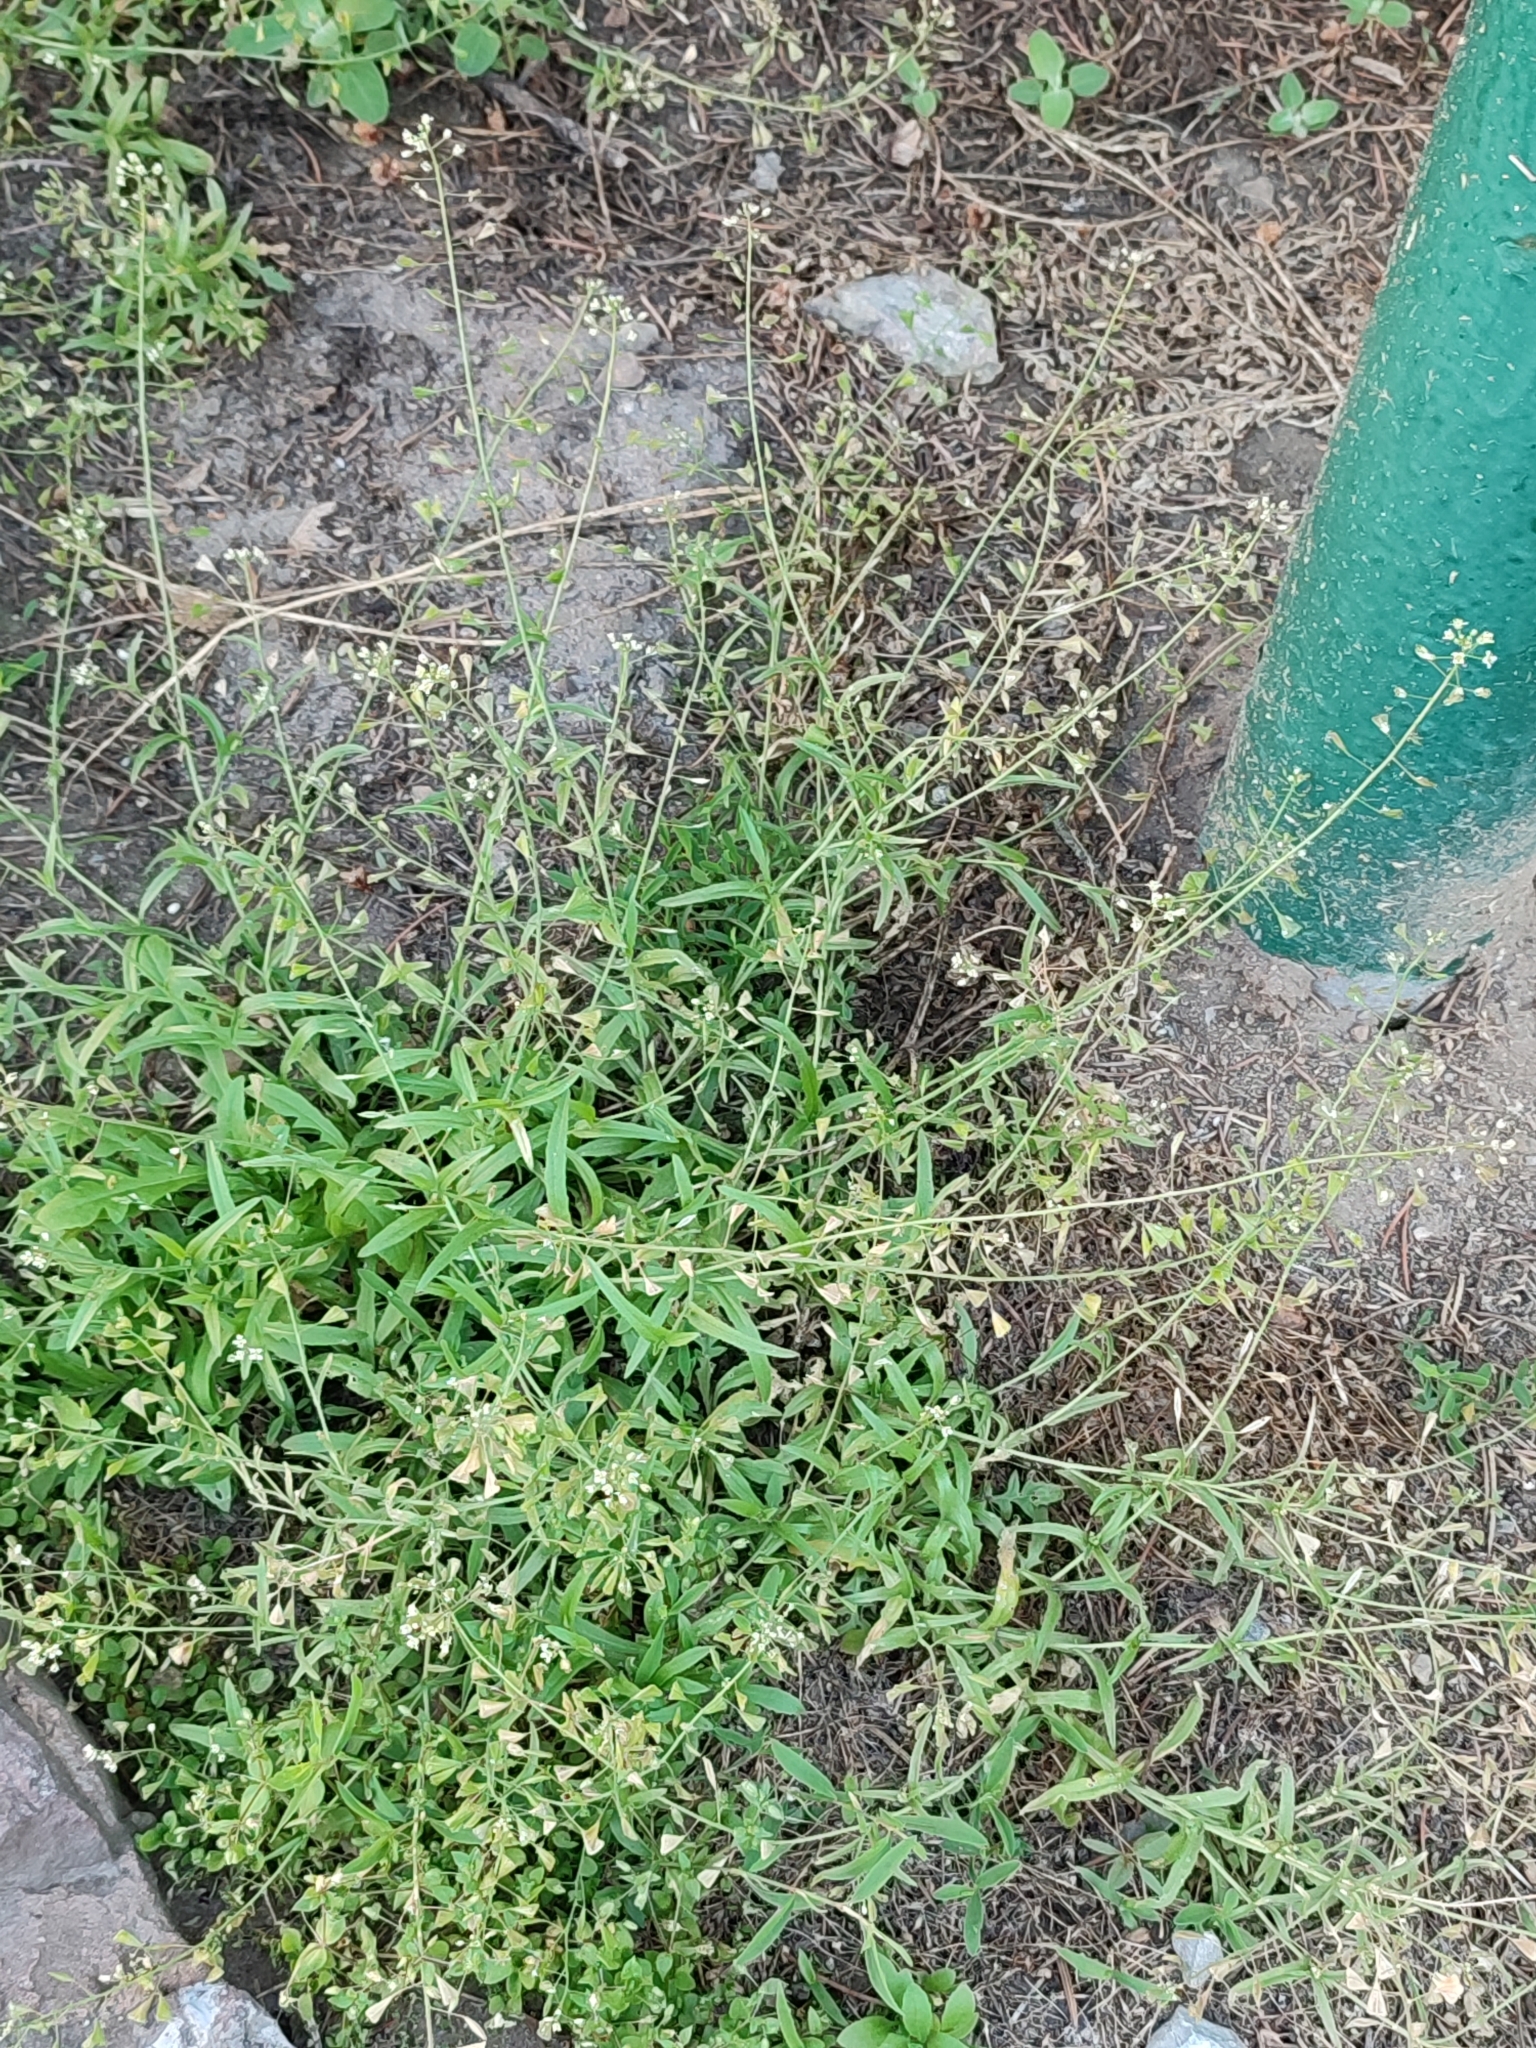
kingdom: Plantae
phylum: Tracheophyta
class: Magnoliopsida
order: Brassicales
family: Brassicaceae
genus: Capsella
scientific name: Capsella bursa-pastoris
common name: Shepherd's purse
